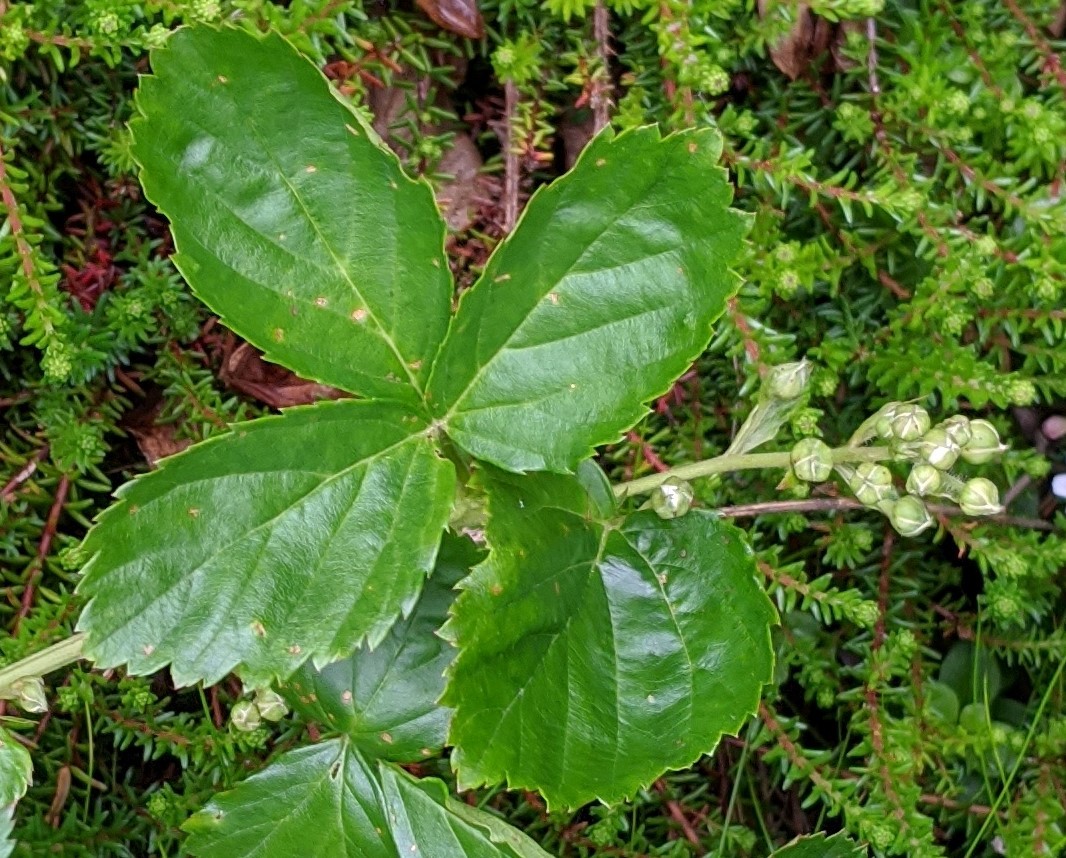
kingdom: Plantae
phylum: Tracheophyta
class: Magnoliopsida
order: Rosales
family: Rosaceae
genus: Rubus
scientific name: Rubus hispidus
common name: Running blackberry
